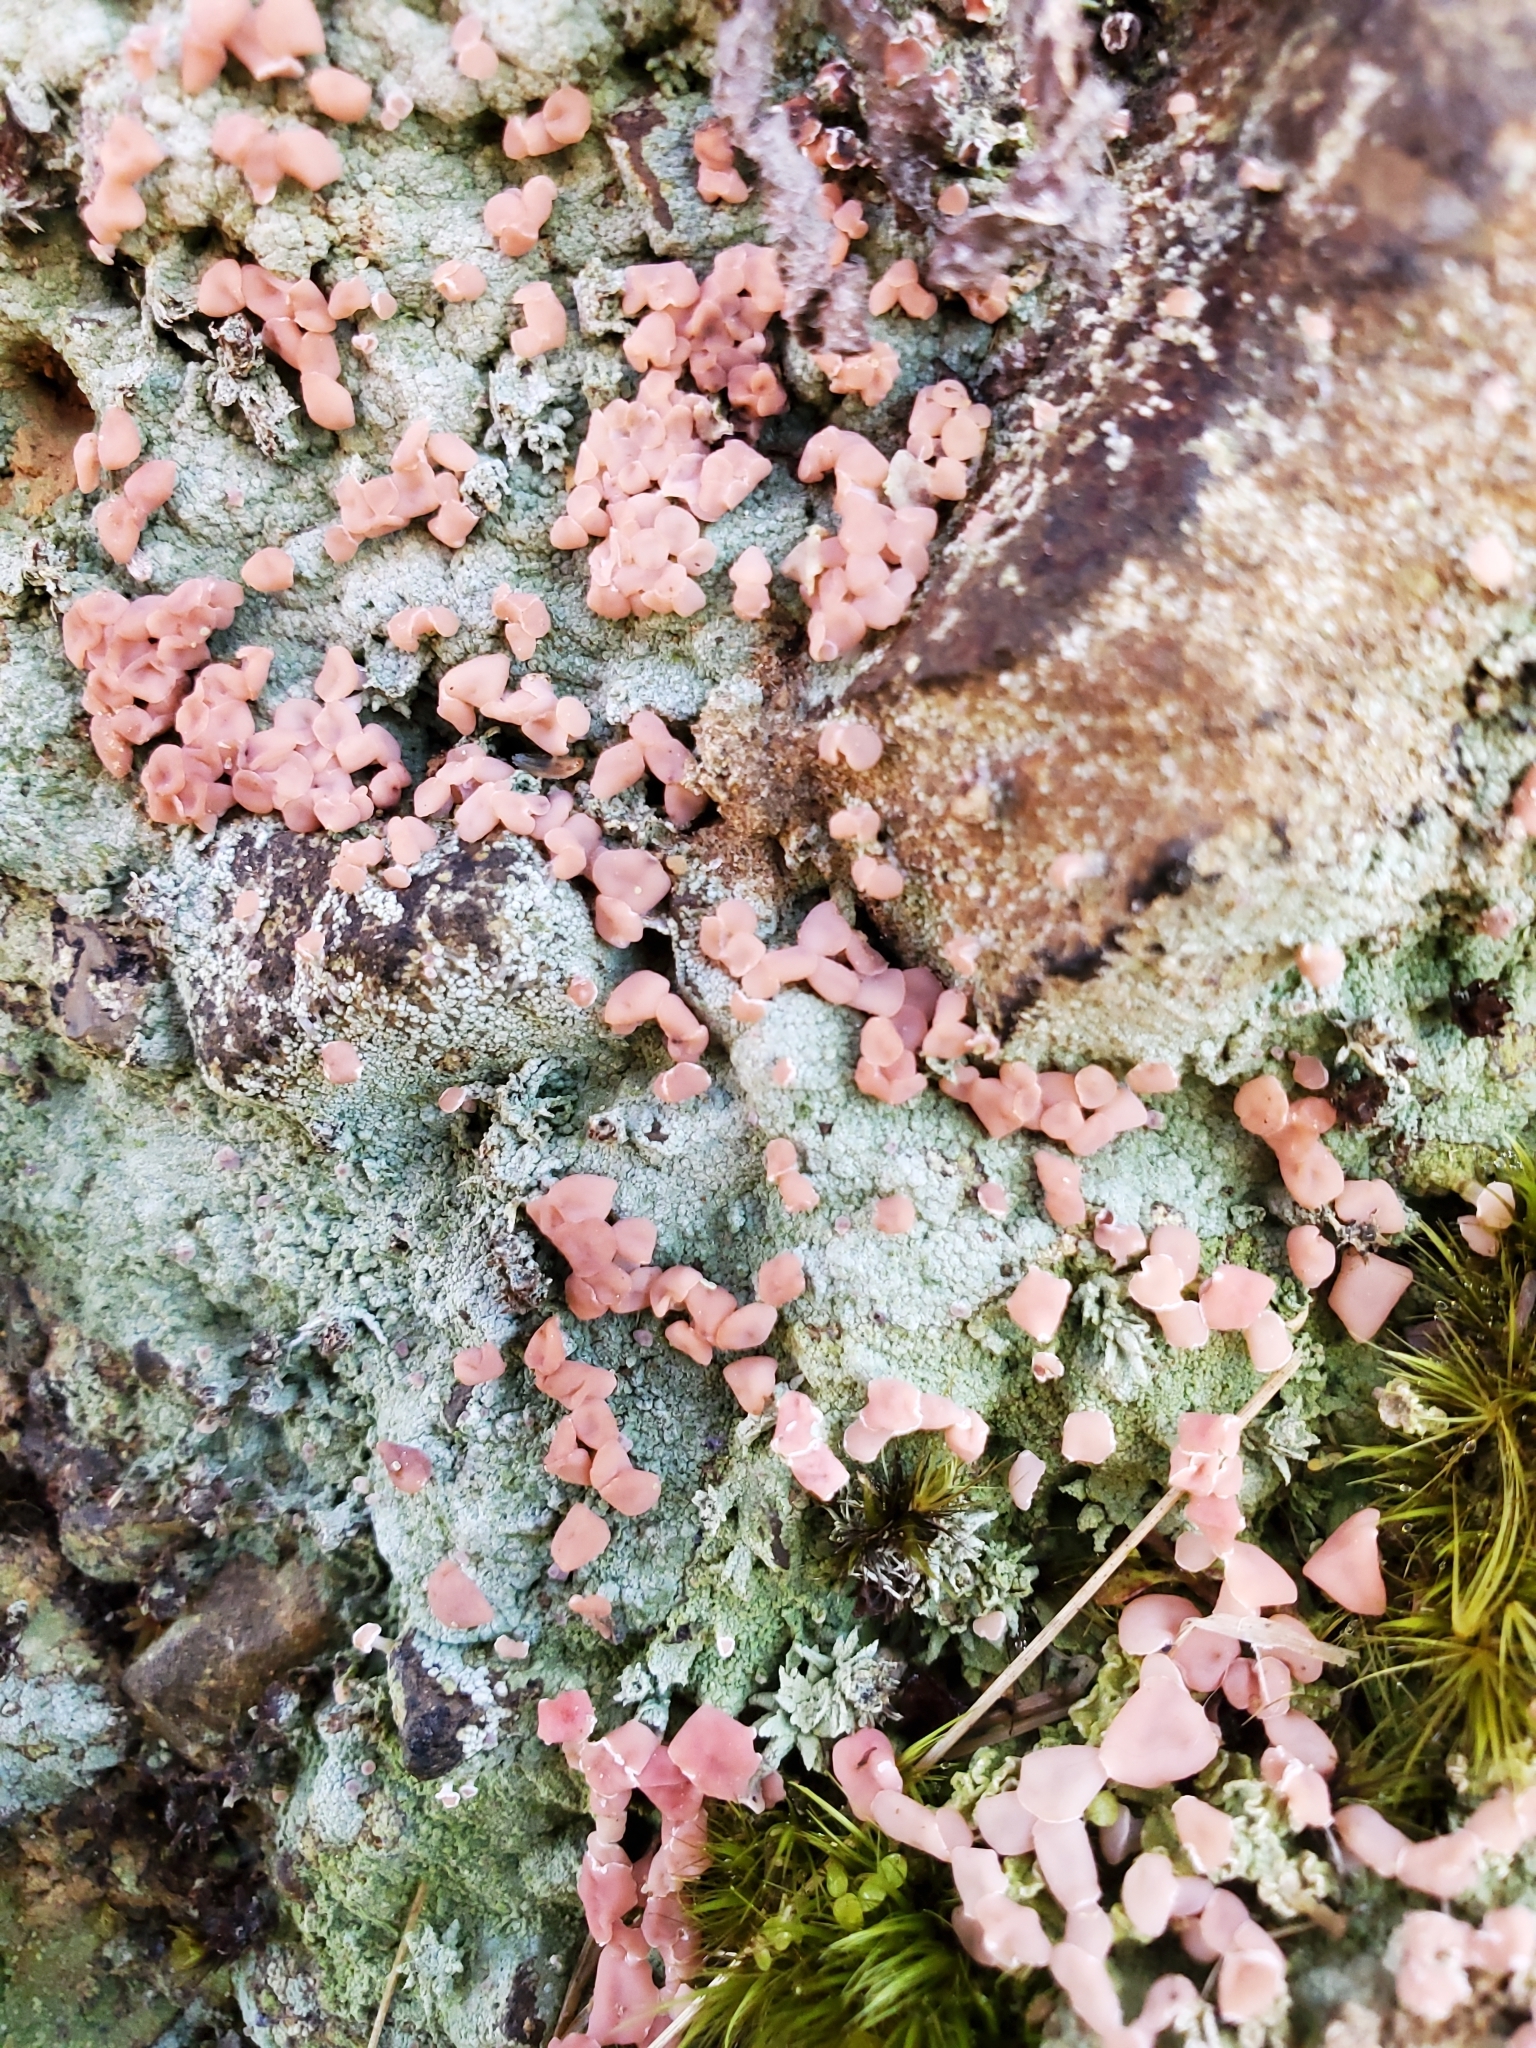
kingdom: Fungi
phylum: Ascomycota
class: Lecanoromycetes
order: Baeomycetales
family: Baeomycetaceae
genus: Baeomyces
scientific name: Baeomyces heteromorphus
